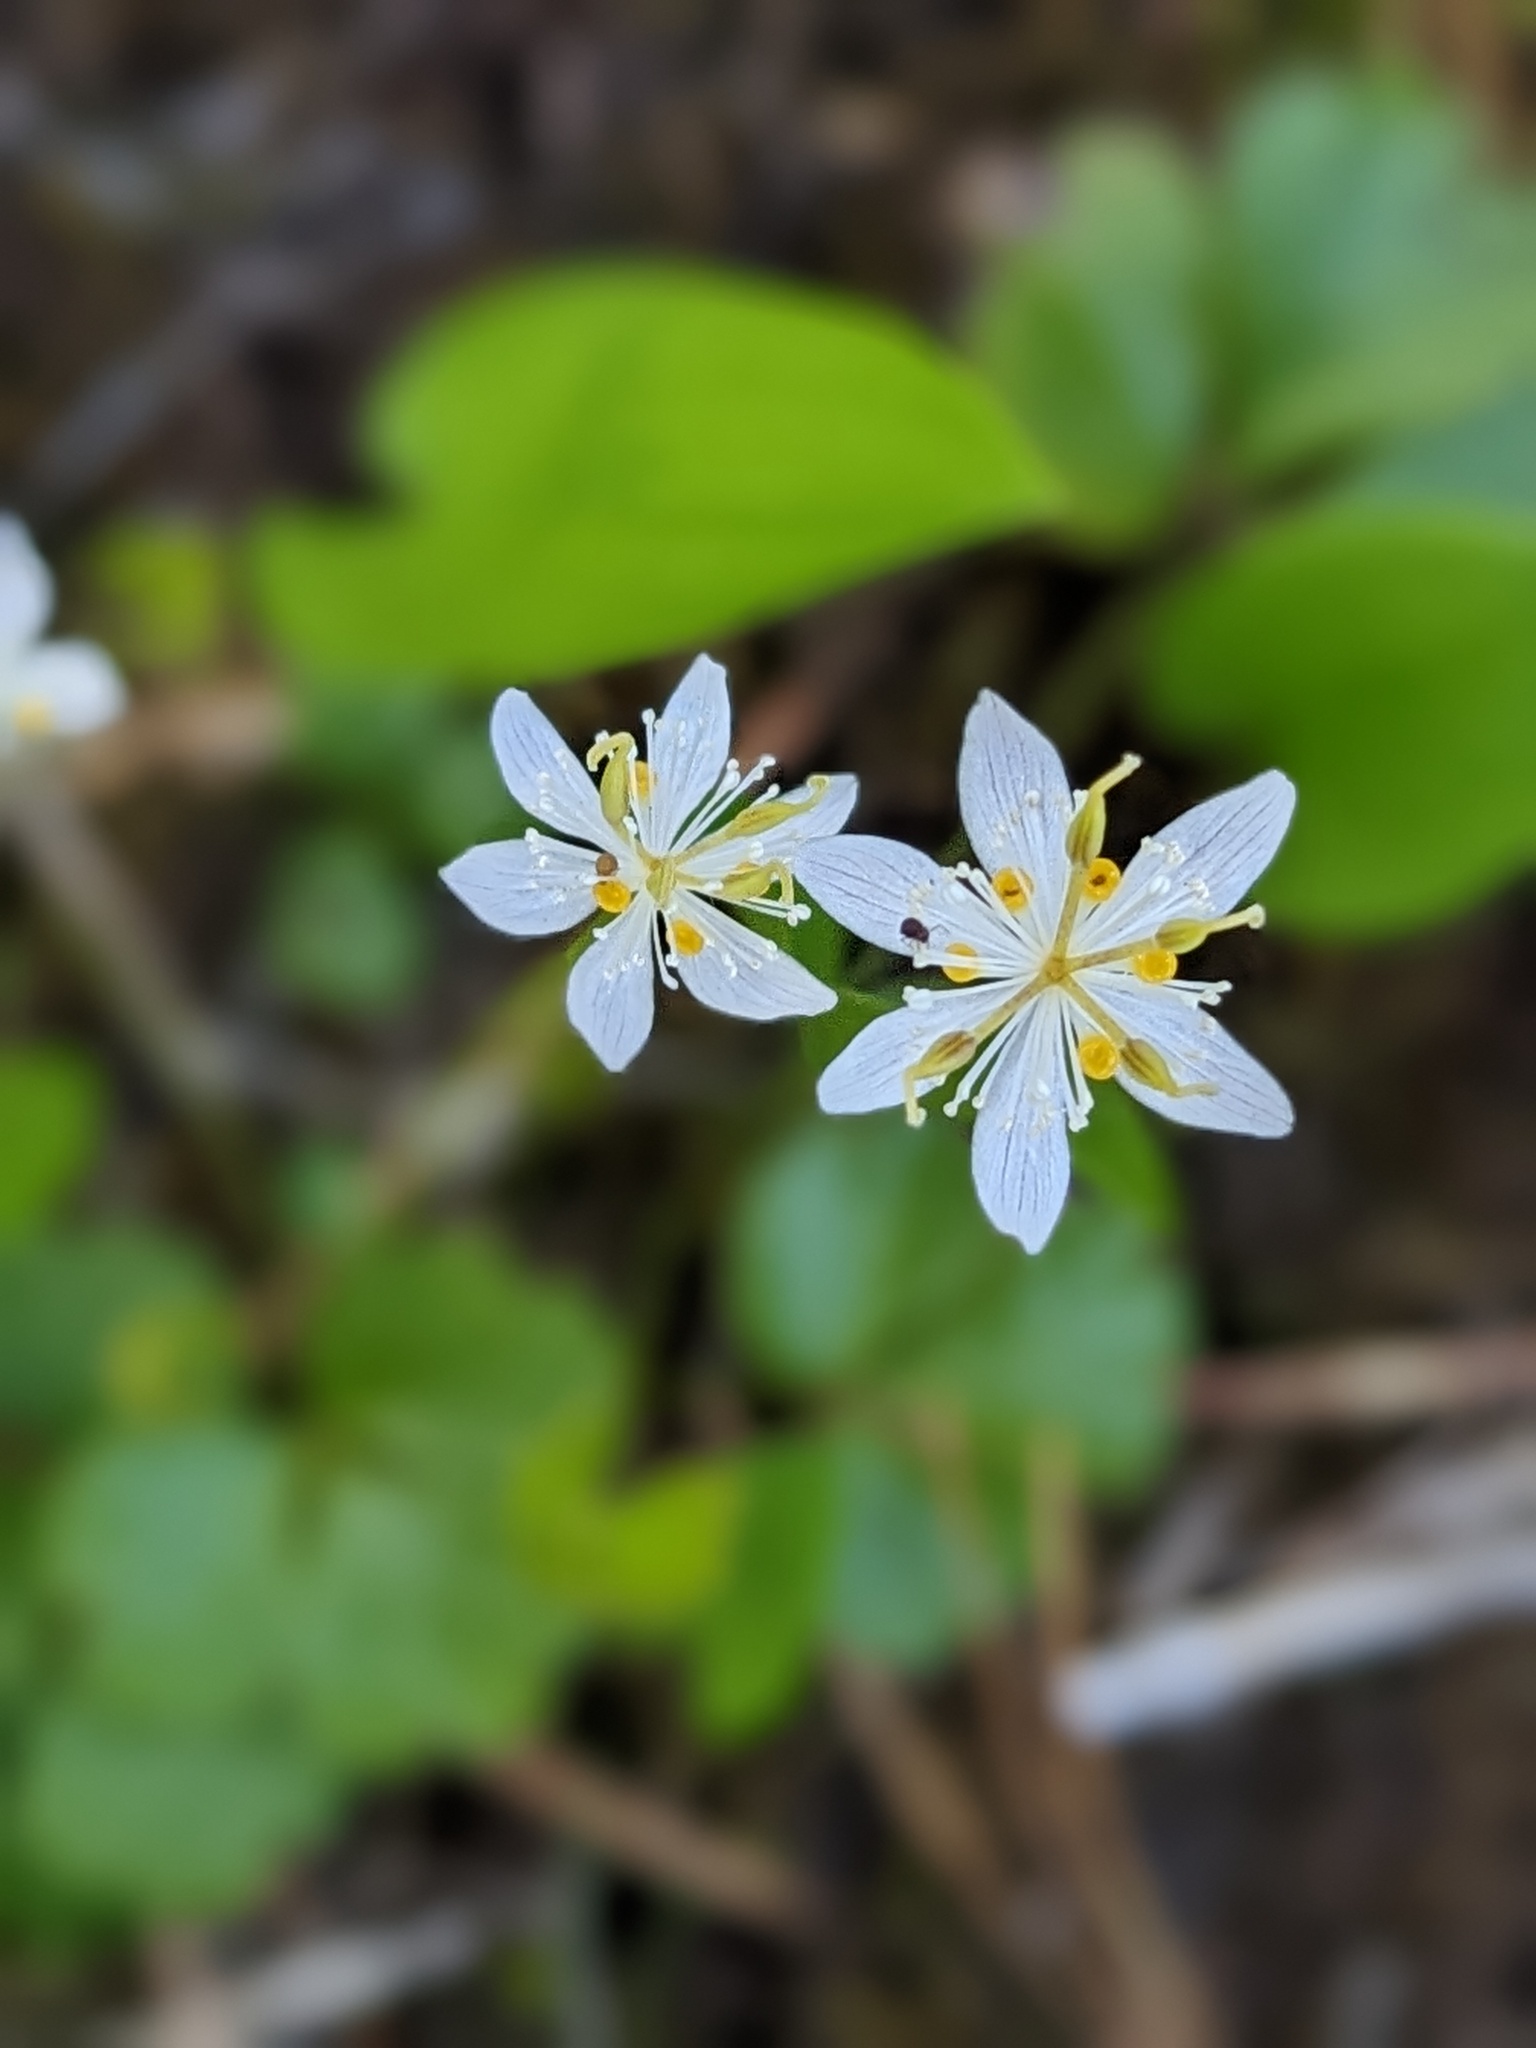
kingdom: Plantae
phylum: Tracheophyta
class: Magnoliopsida
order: Ranunculales
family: Ranunculaceae
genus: Coptis
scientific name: Coptis trifolia
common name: Canker-root
